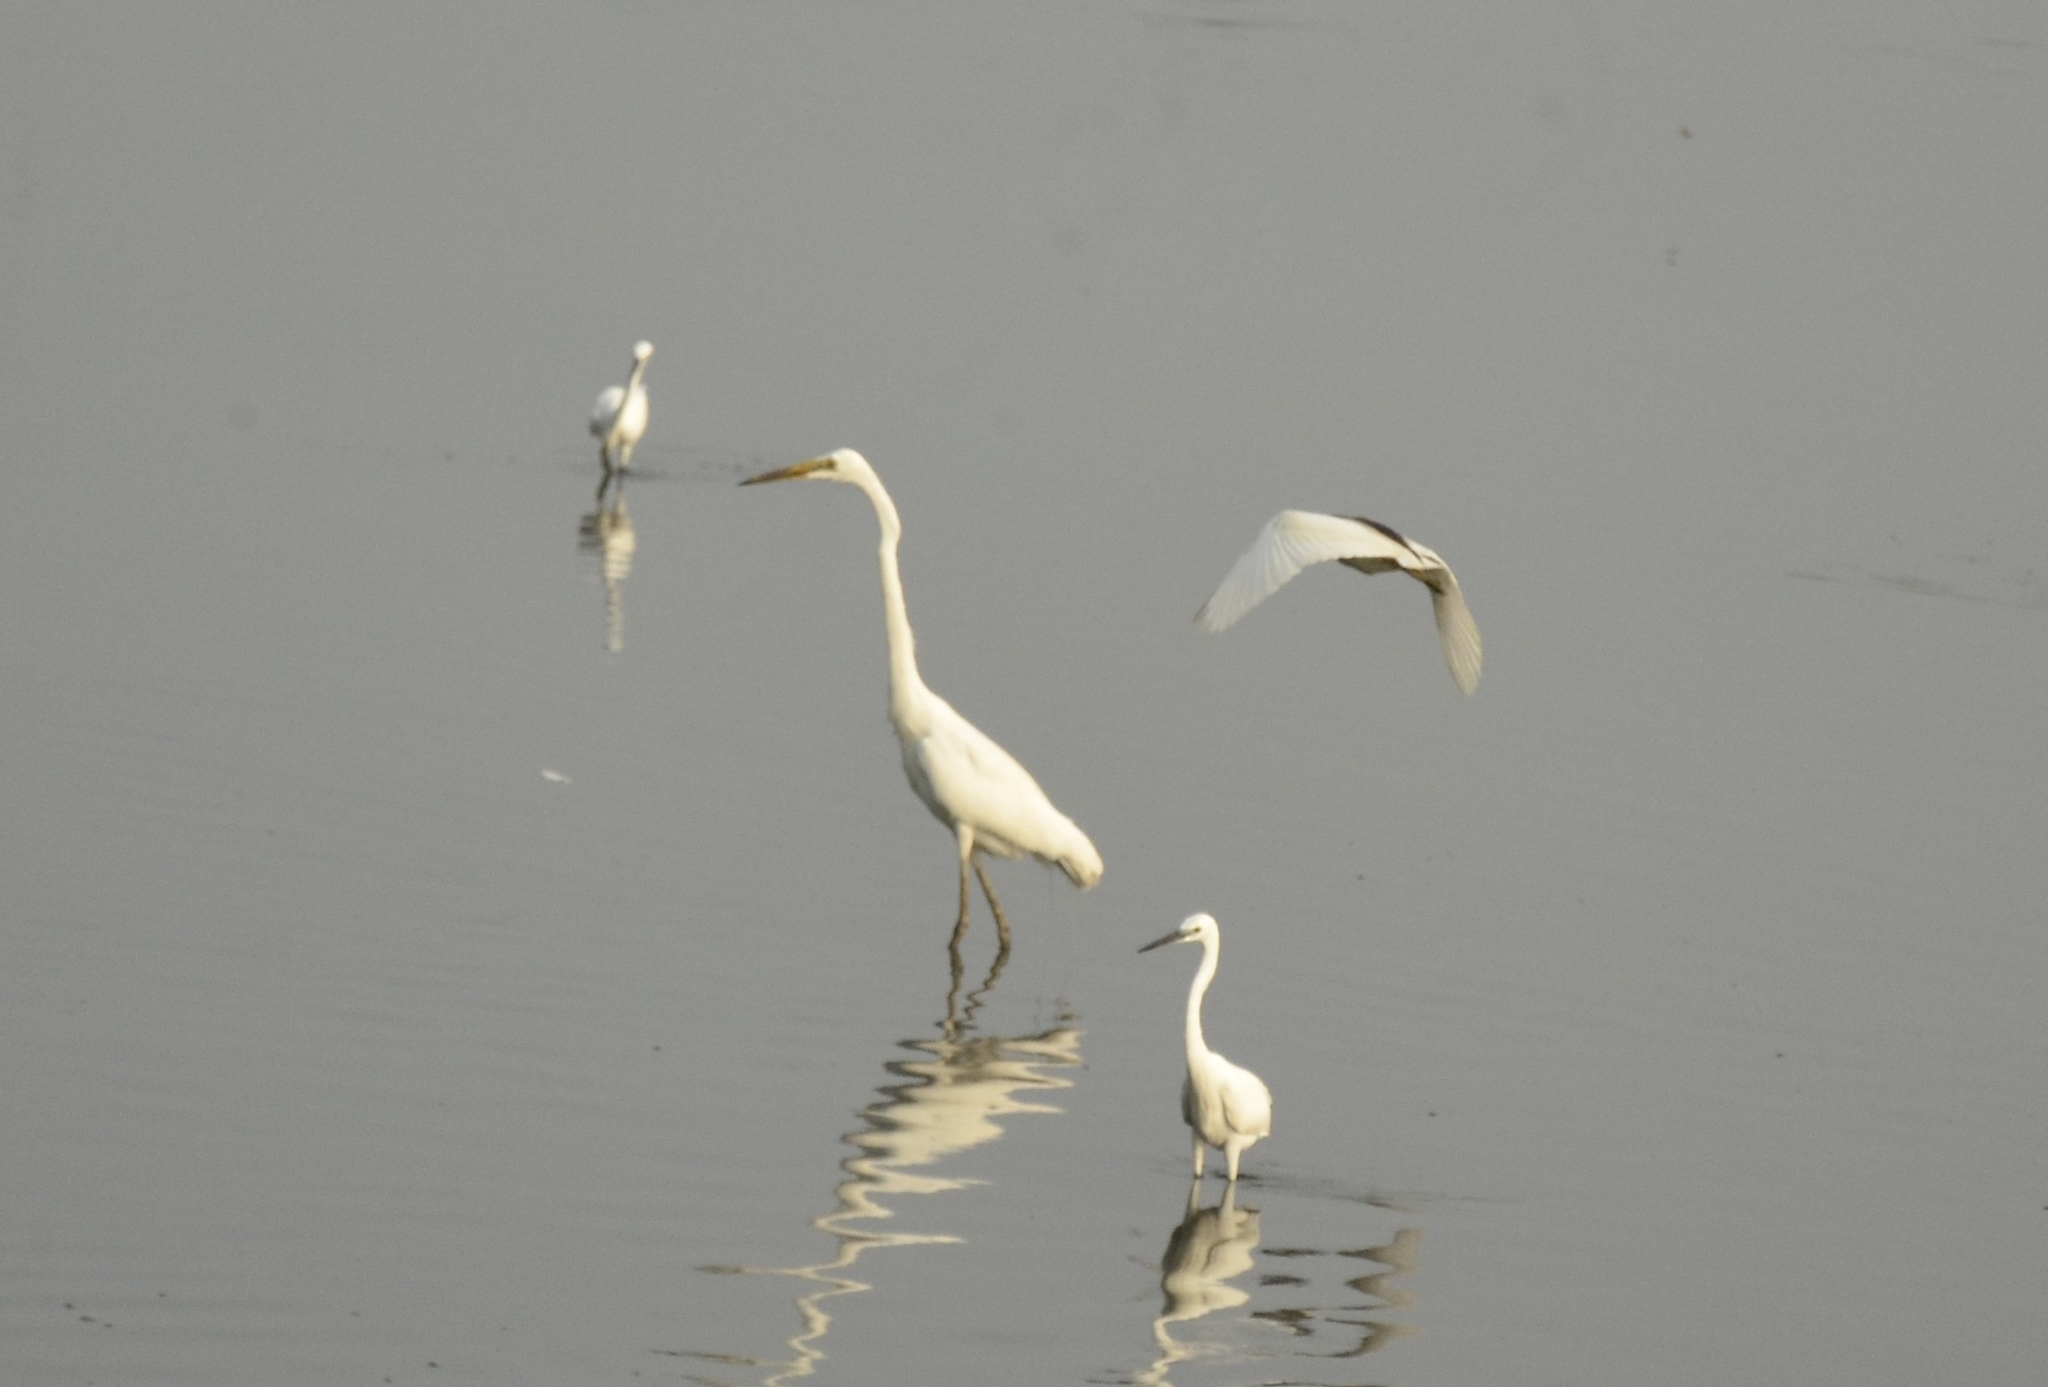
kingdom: Animalia
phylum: Chordata
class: Aves
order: Pelecaniformes
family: Ardeidae
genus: Ardea
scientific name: Ardea alba
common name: Great egret
